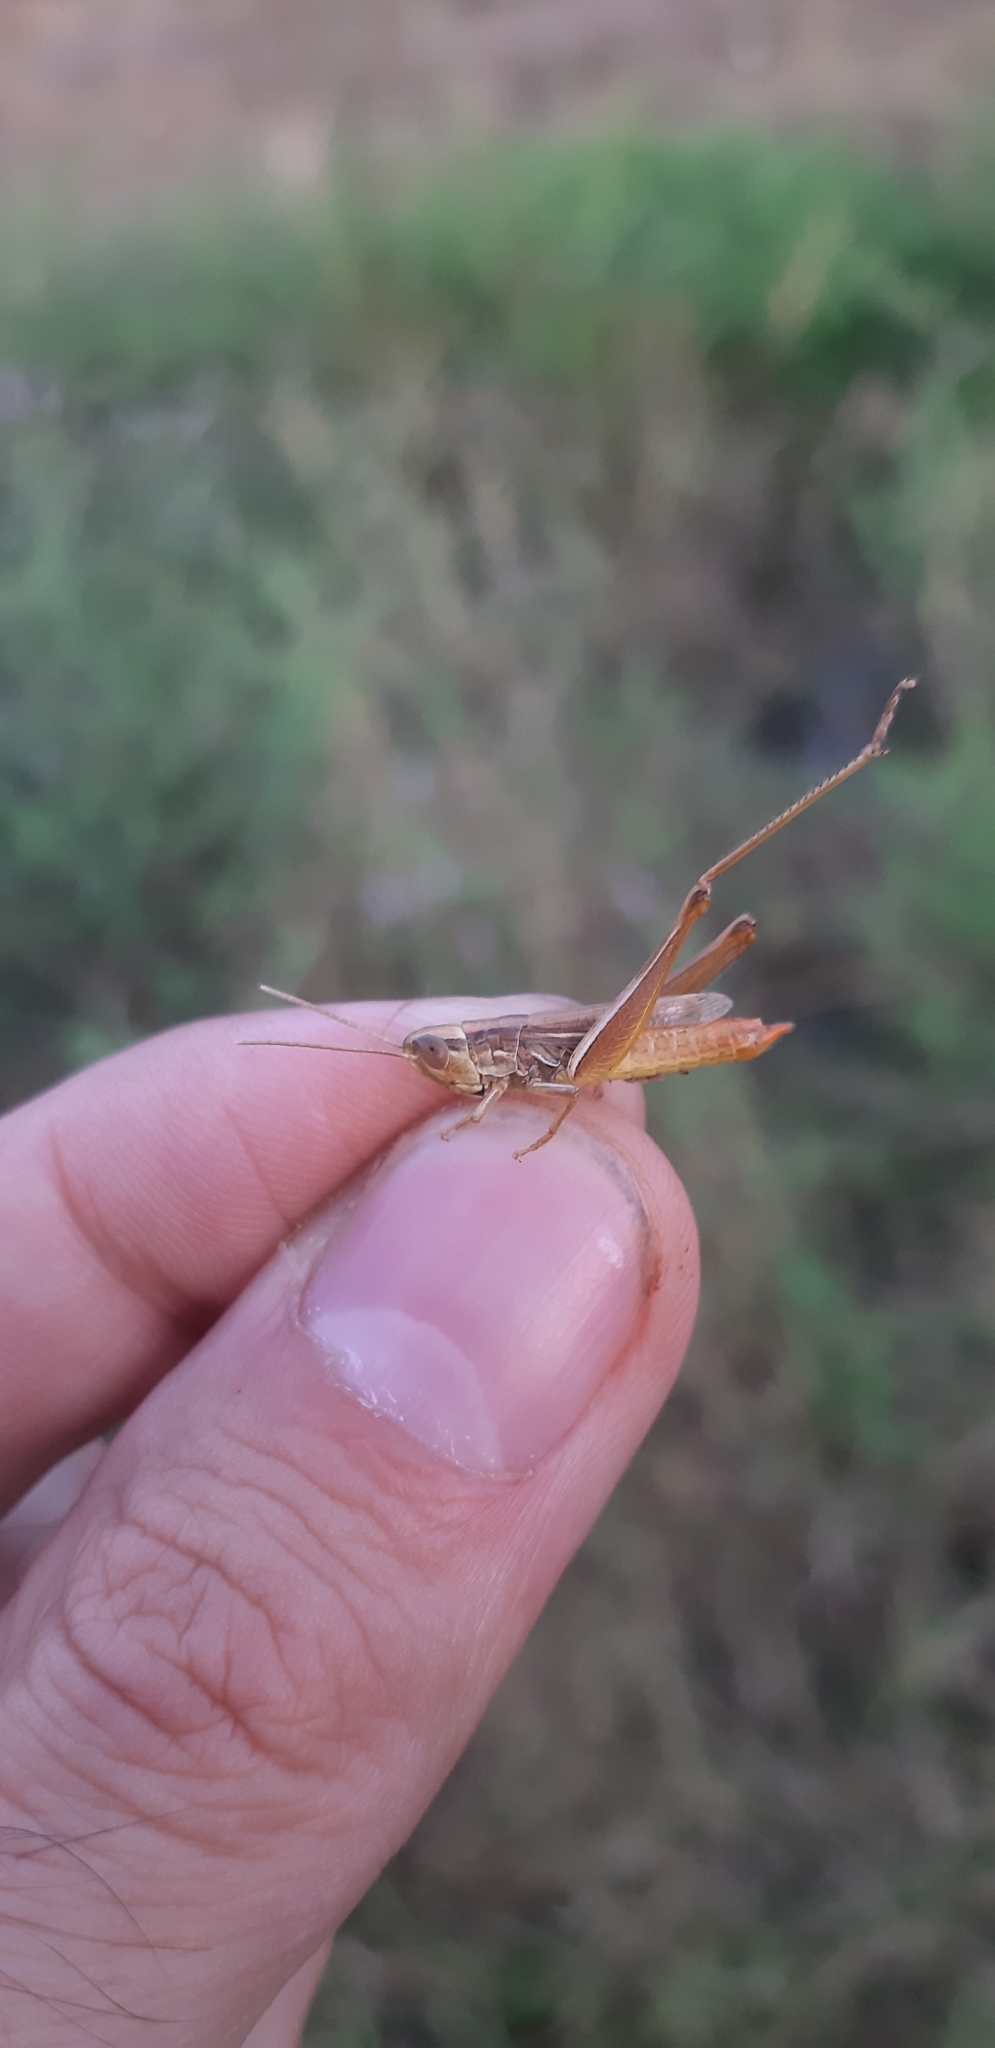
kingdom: Animalia
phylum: Arthropoda
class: Insecta
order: Orthoptera
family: Acrididae
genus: Euchorthippus
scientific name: Euchorthippus declivus
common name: Common straw grasshopper
